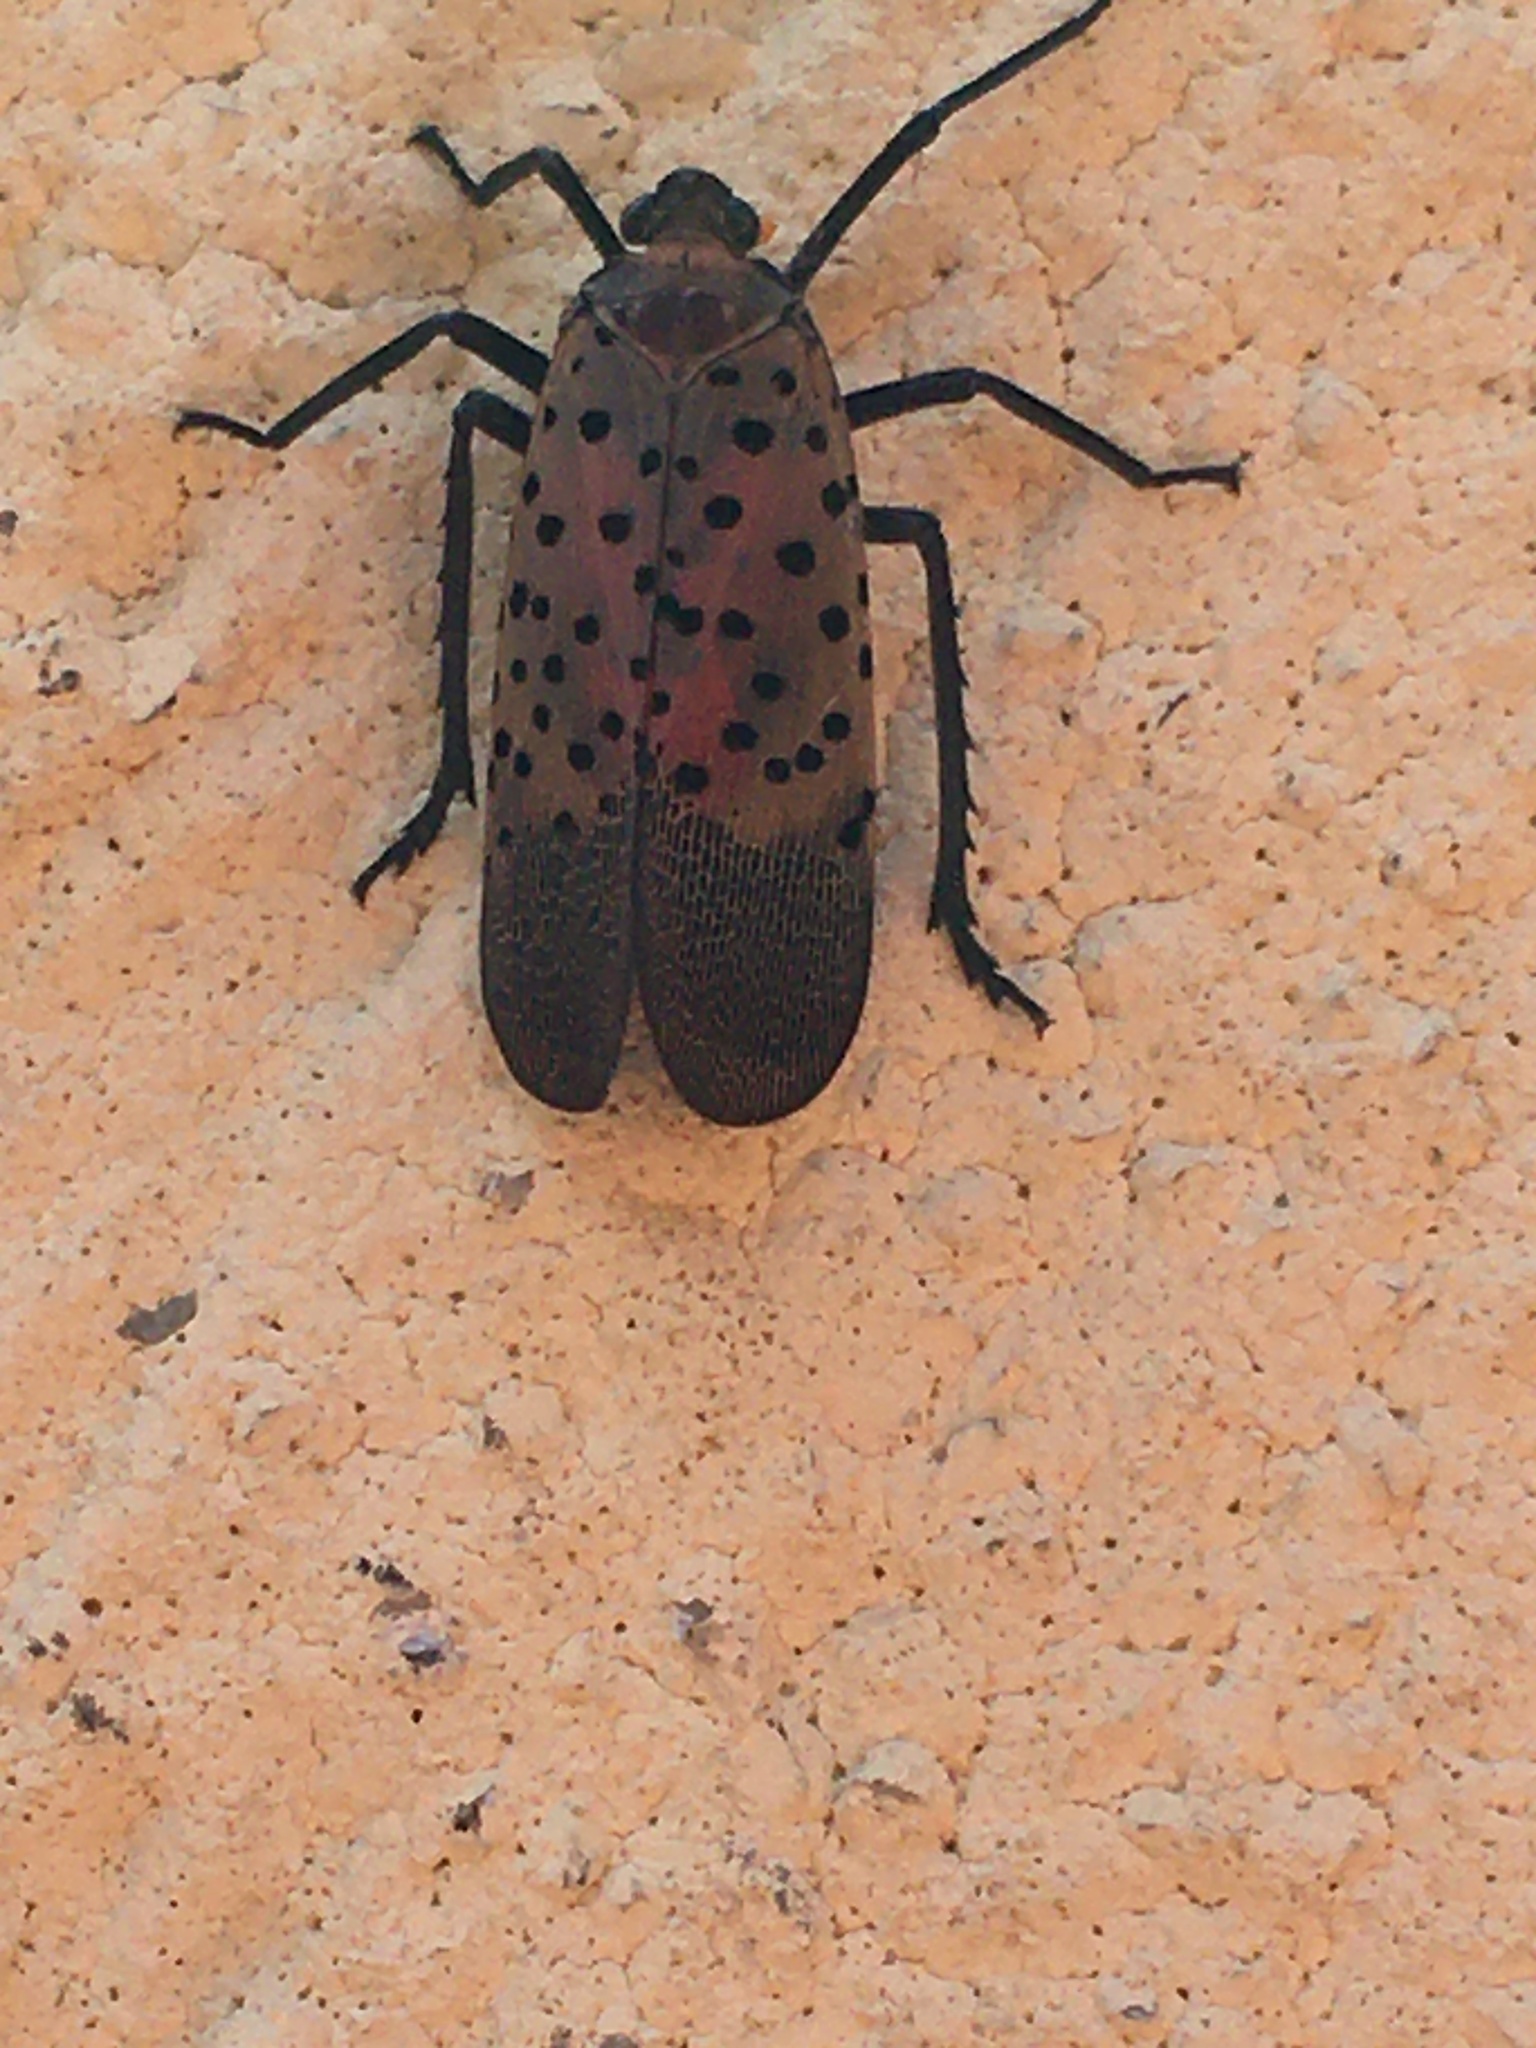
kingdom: Animalia
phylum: Arthropoda
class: Insecta
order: Hemiptera
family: Fulgoridae
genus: Lycorma
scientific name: Lycorma delicatula
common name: Spotted lanternfly
